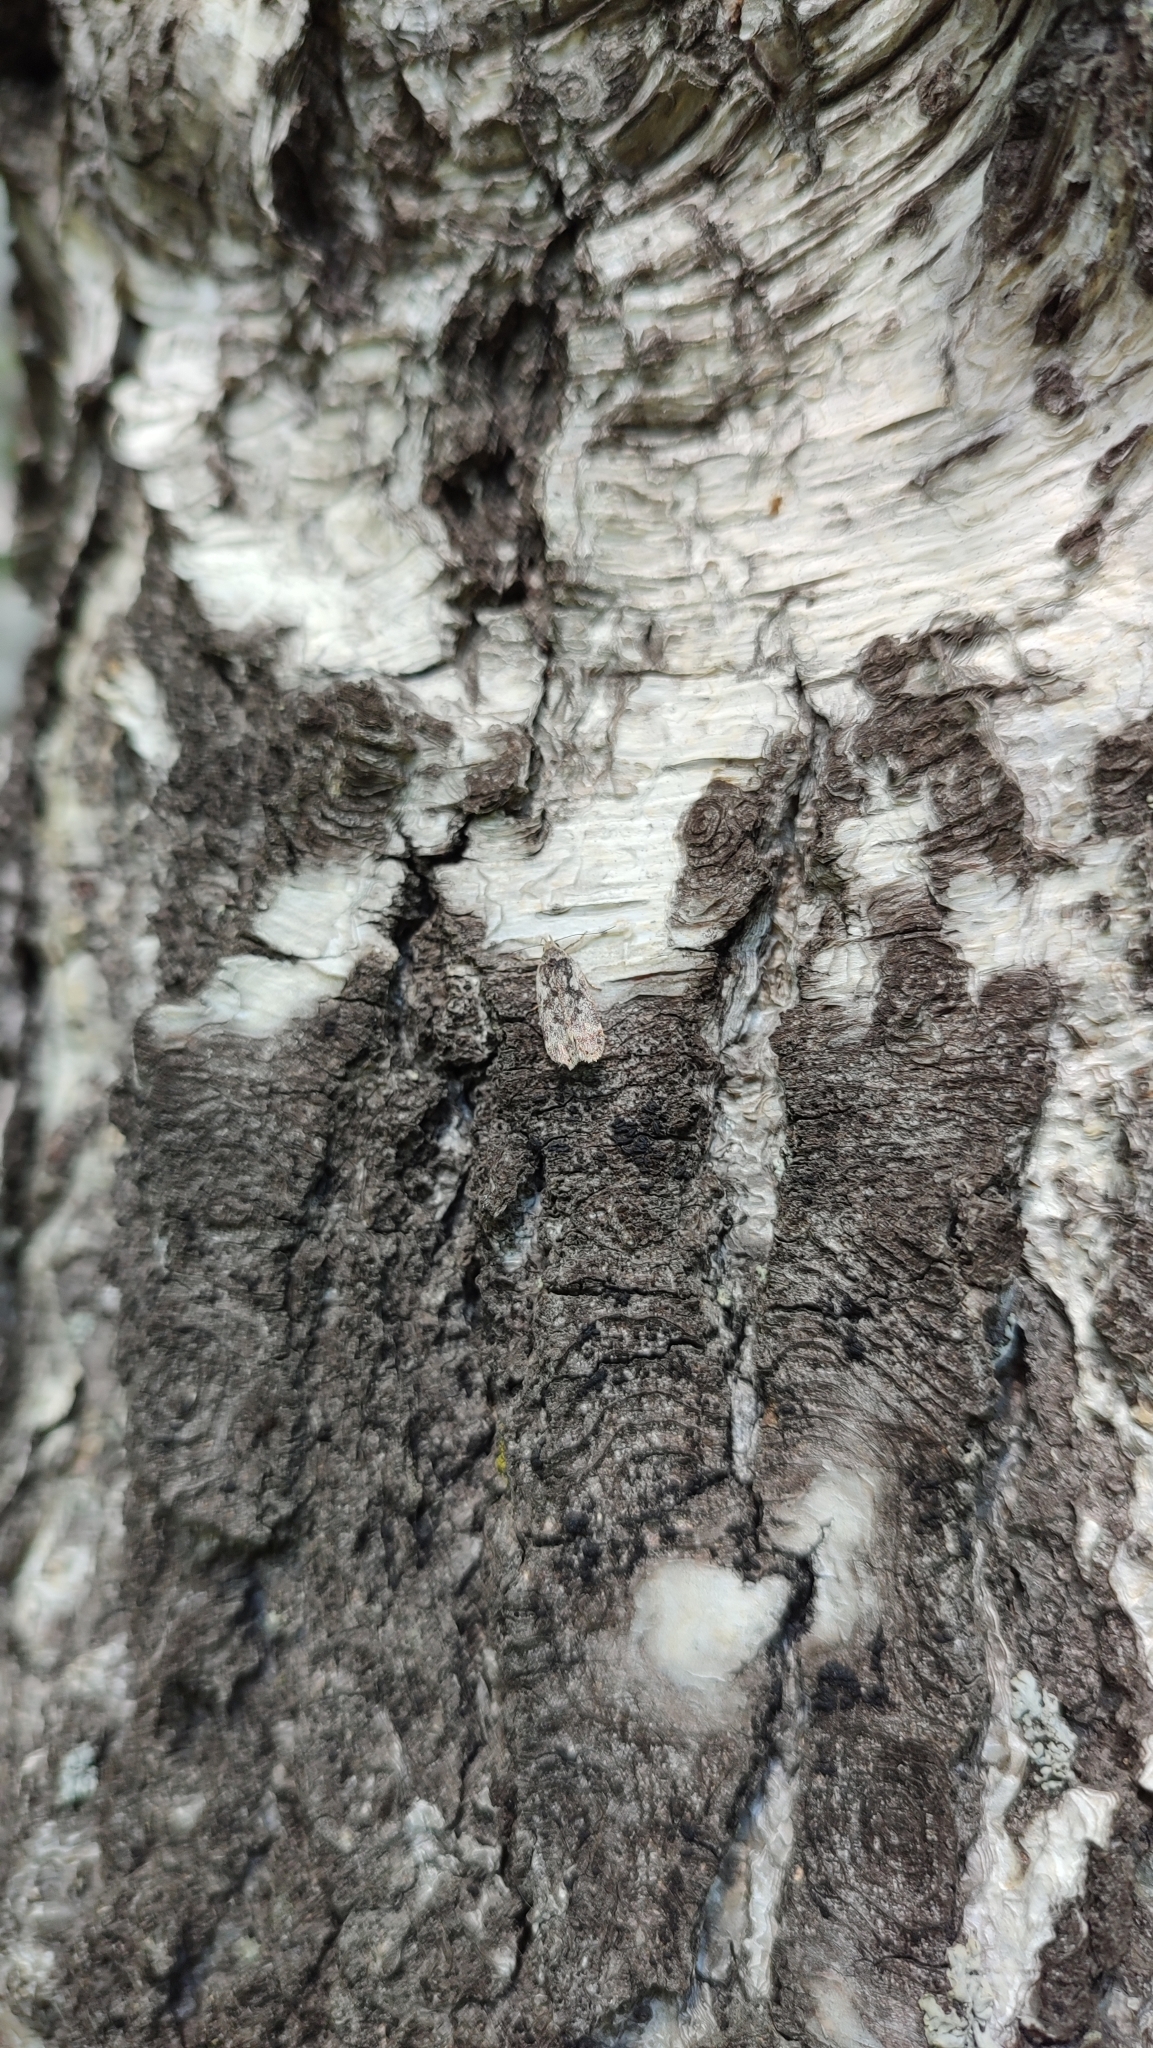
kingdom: Animalia
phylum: Arthropoda
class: Insecta
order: Lepidoptera
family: Gelechiidae
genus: Anacampsis
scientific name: Anacampsis blattariella
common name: Birch sober
